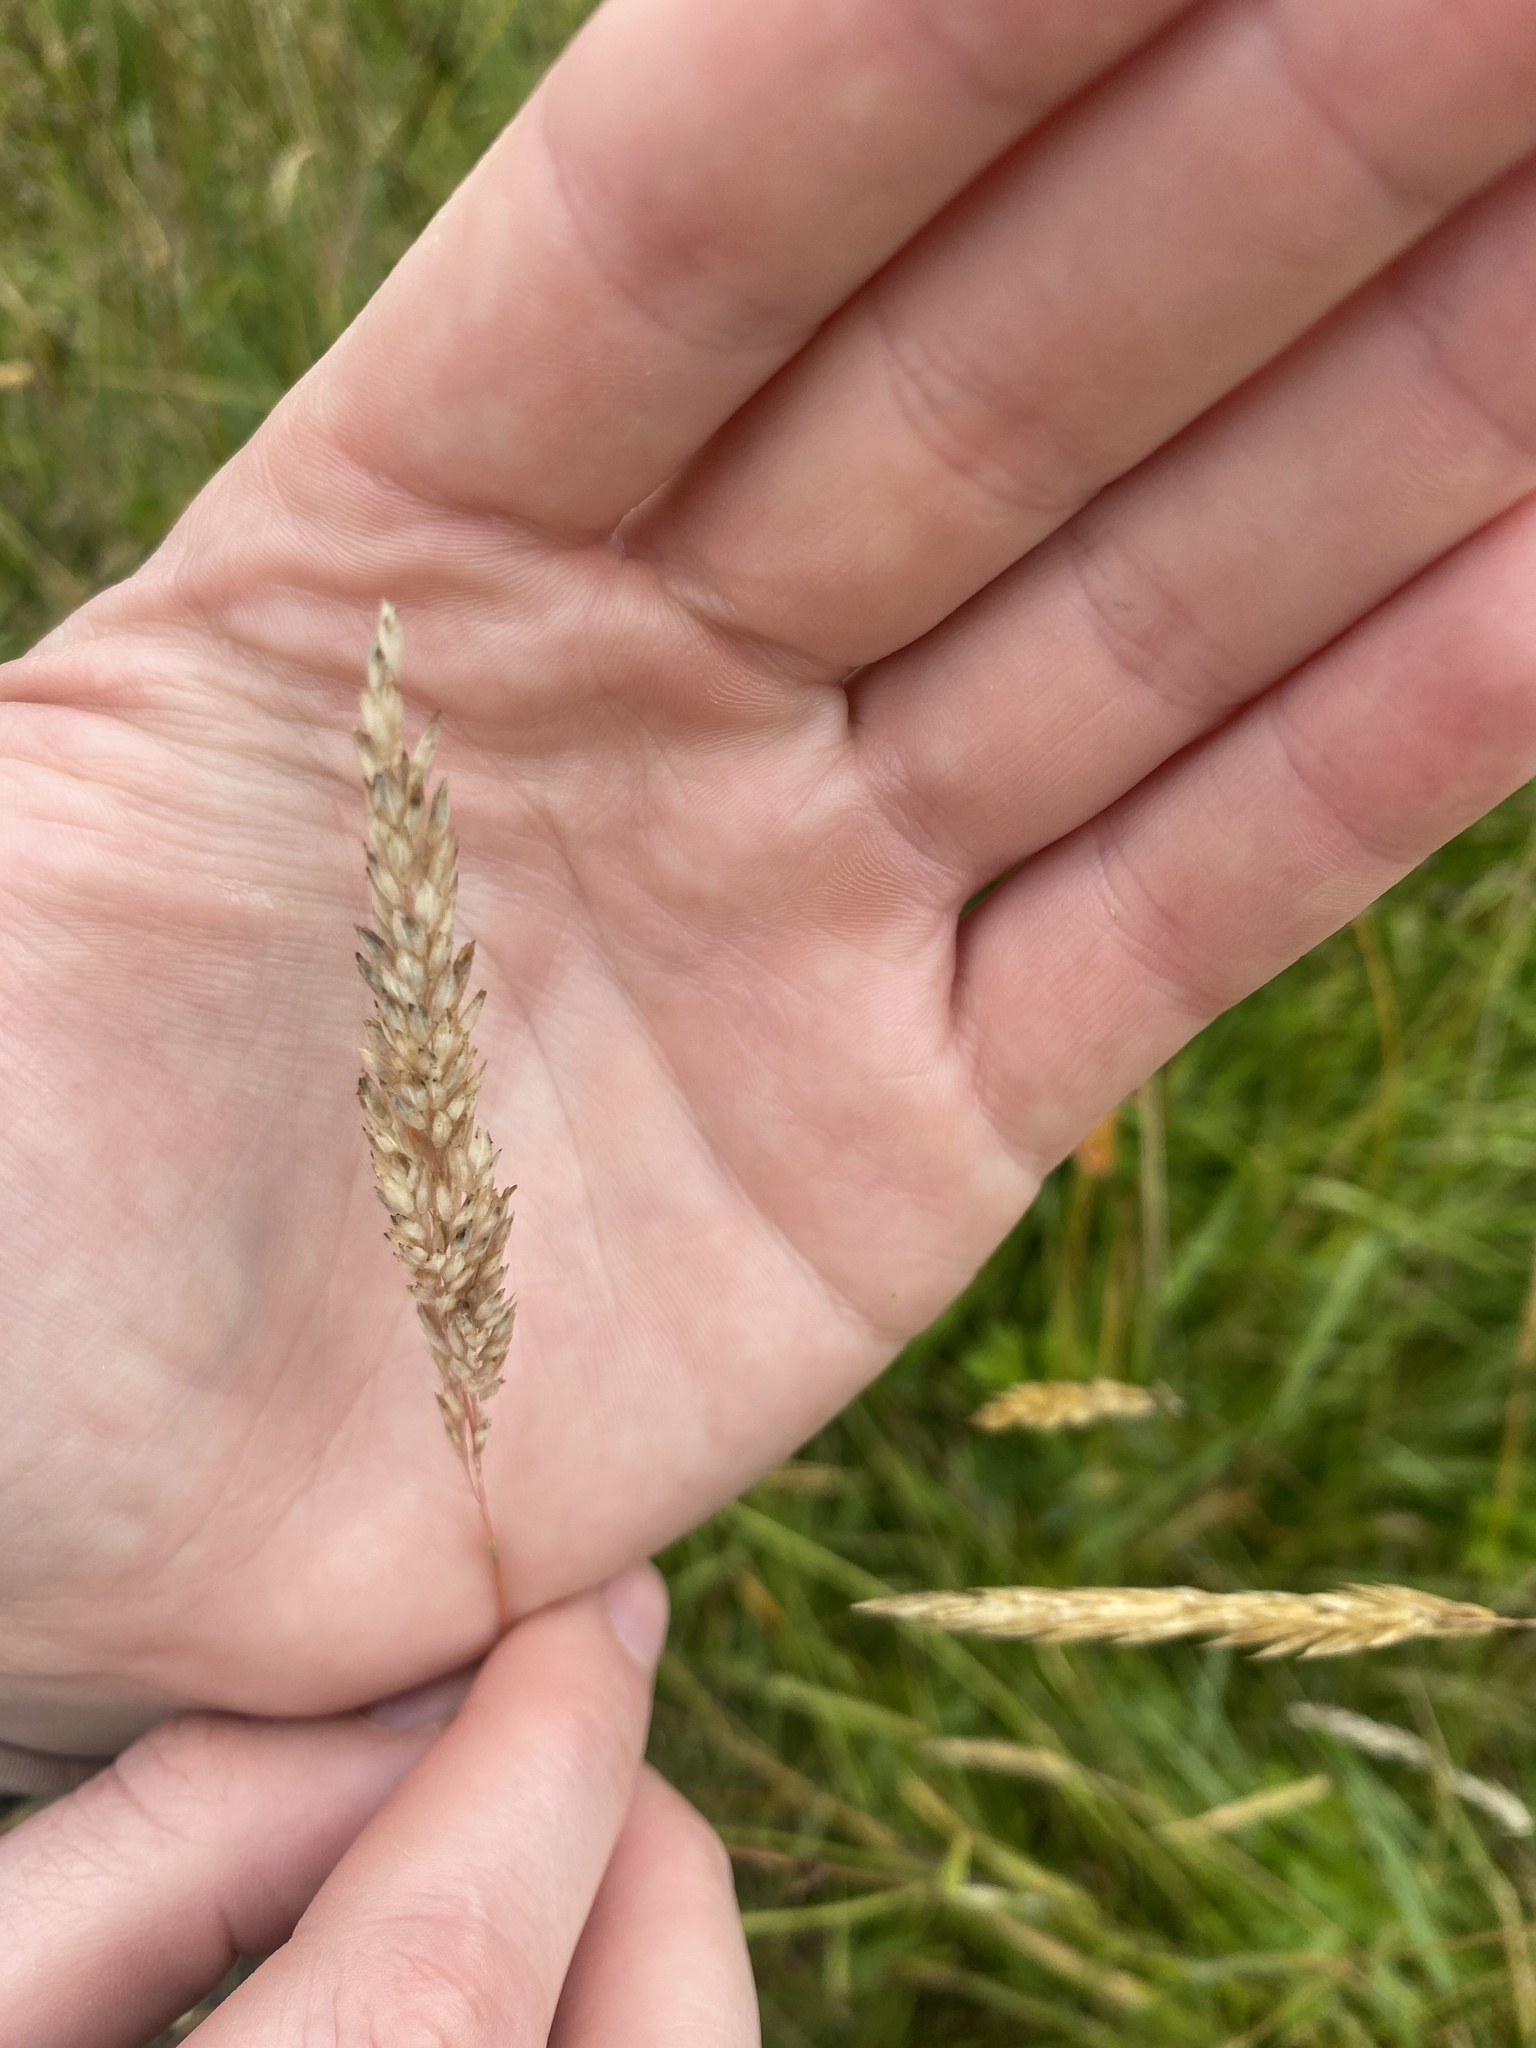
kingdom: Plantae
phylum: Tracheophyta
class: Liliopsida
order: Poales
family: Poaceae
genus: Holcus
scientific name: Holcus lanatus
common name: Yorkshire-fog
